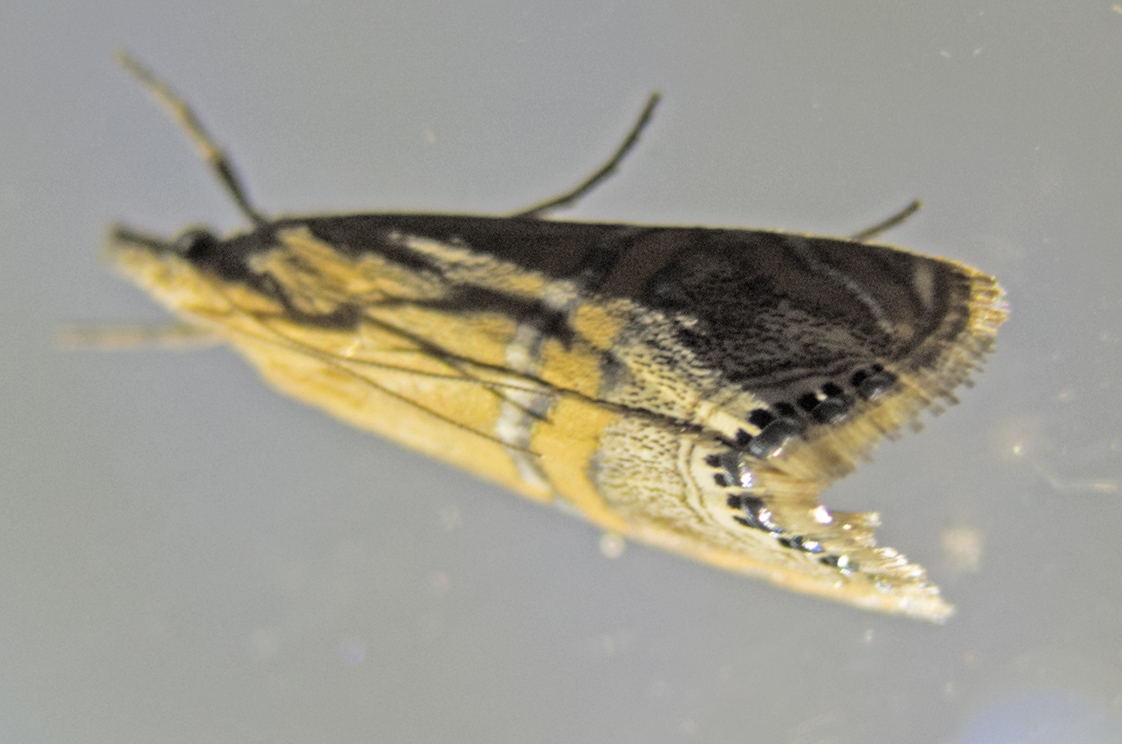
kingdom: Animalia
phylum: Arthropoda
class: Insecta
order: Lepidoptera
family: Crambidae
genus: Euchromius
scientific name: Euchromius bella
